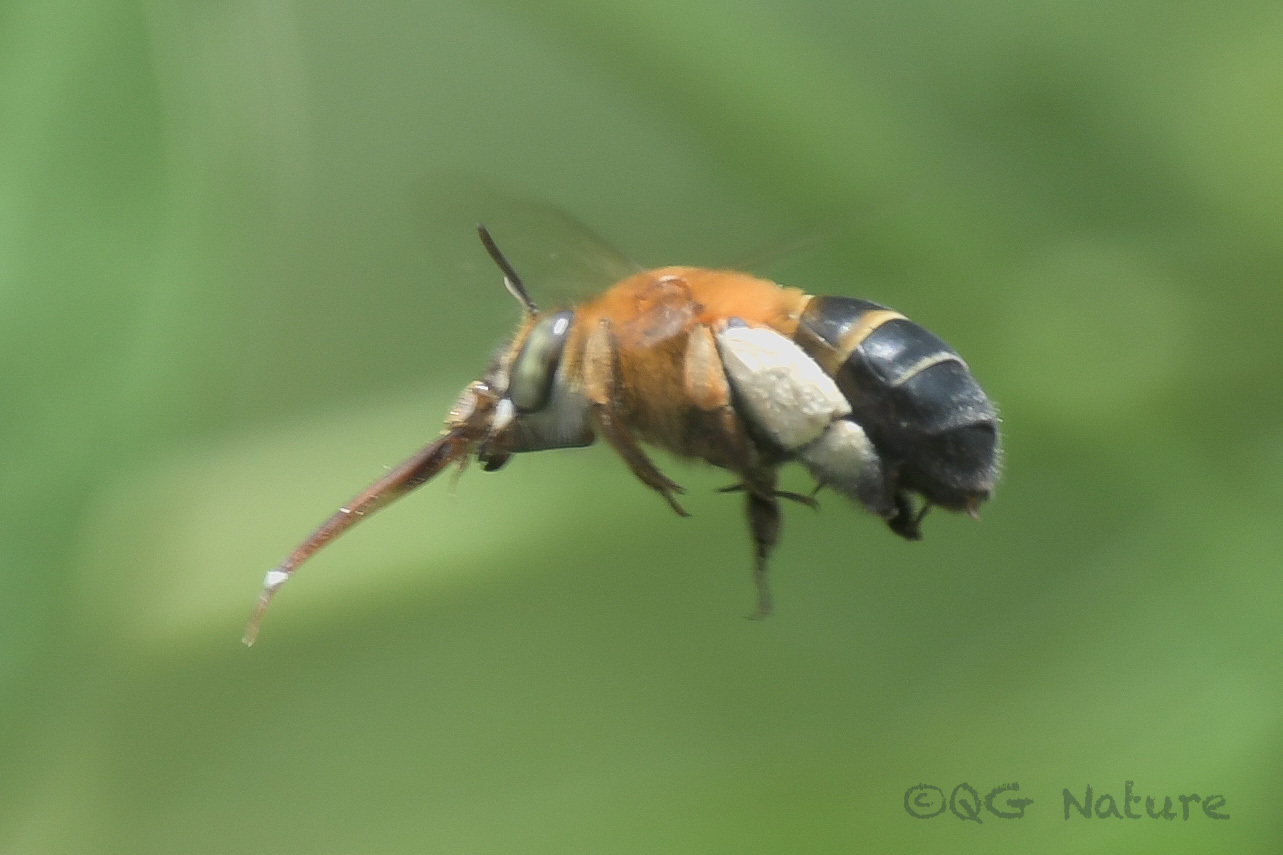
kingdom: Animalia
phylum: Arthropoda
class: Insecta
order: Hymenoptera
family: Apidae
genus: Amegilla
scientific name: Amegilla mesopyrrha
